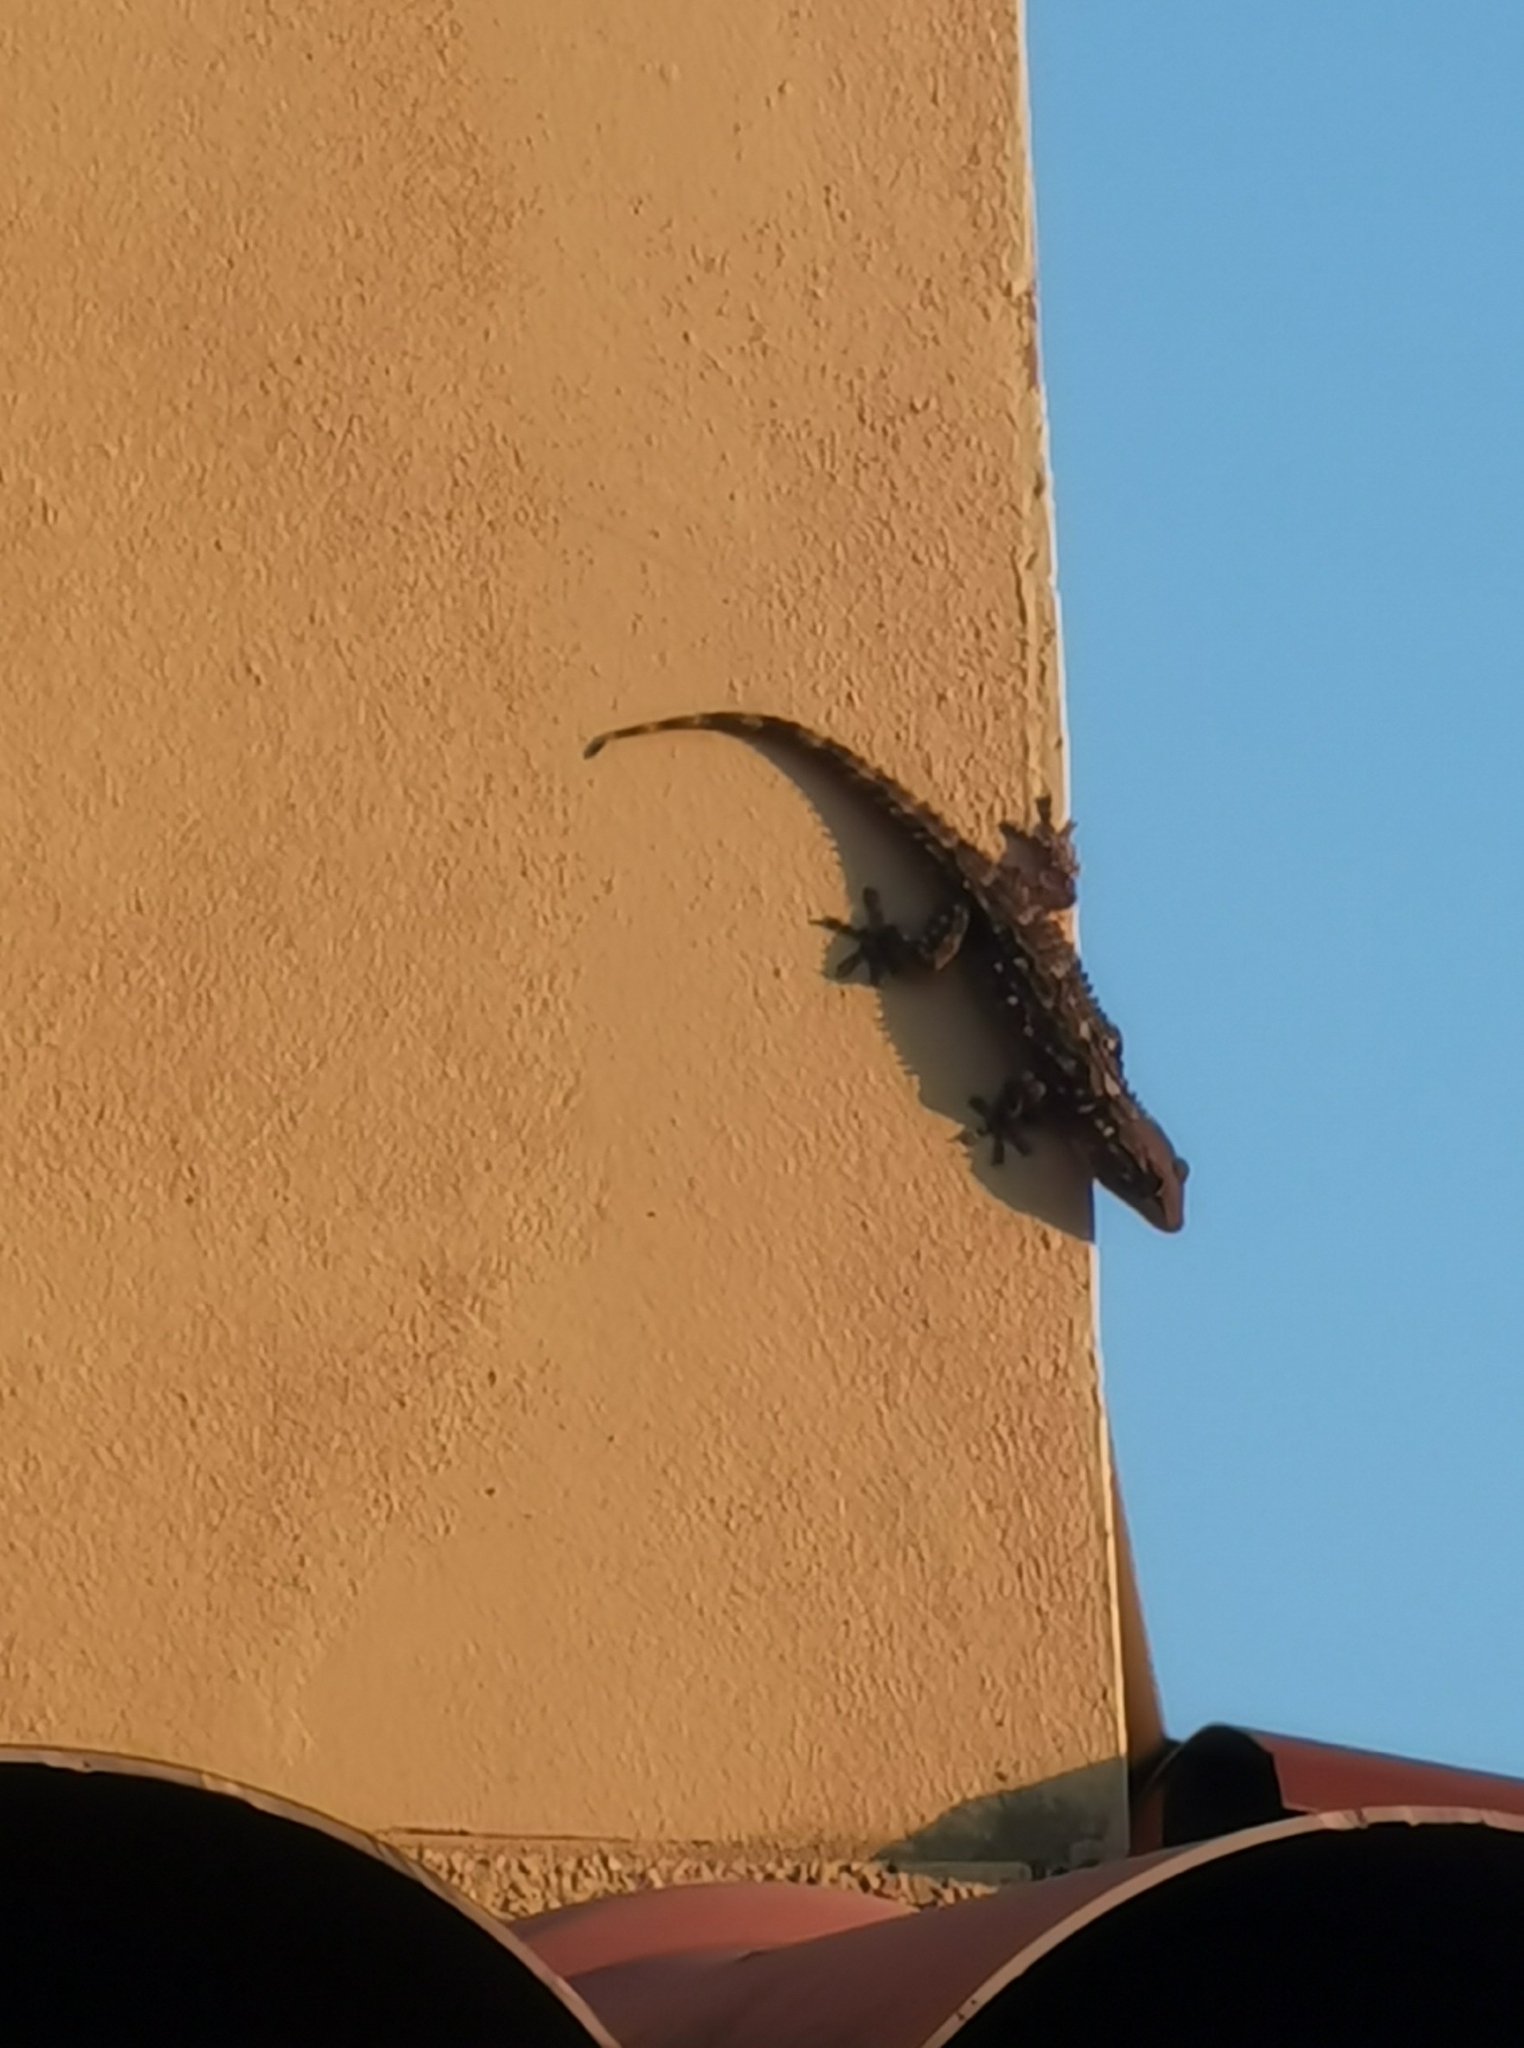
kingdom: Animalia
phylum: Chordata
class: Squamata
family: Phyllodactylidae
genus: Tarentola
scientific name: Tarentola mauritanica
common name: Moorish gecko
